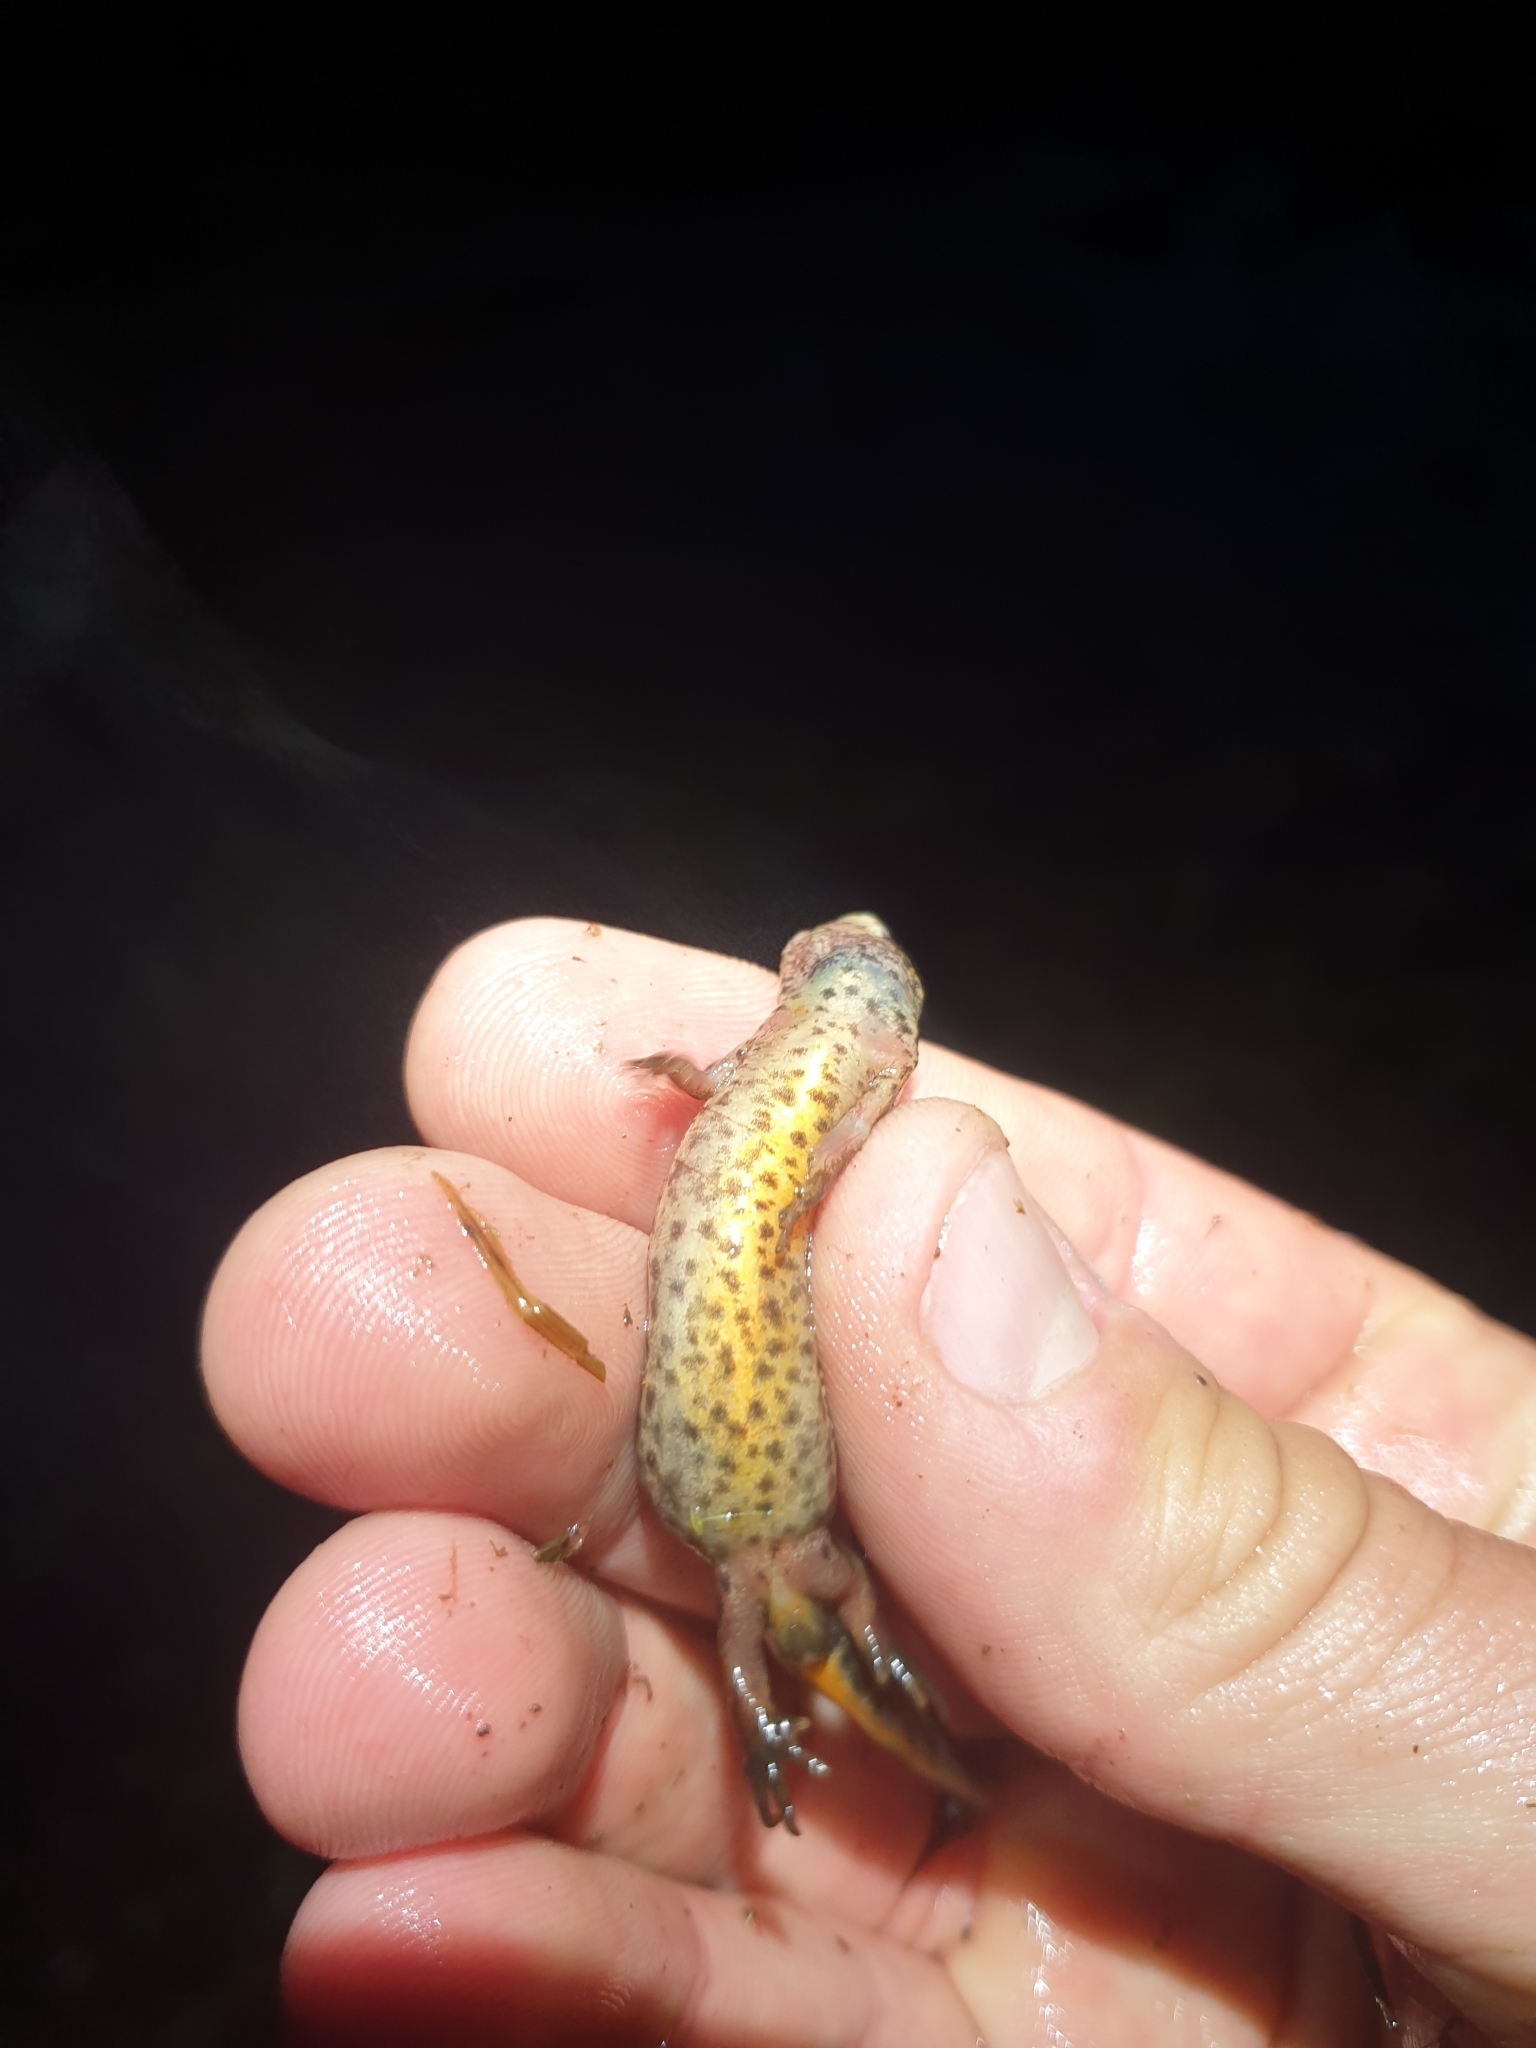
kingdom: Animalia
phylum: Chordata
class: Amphibia
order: Caudata
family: Salamandridae
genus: Lissotriton
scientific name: Lissotriton vulgaris
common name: Smooth newt
